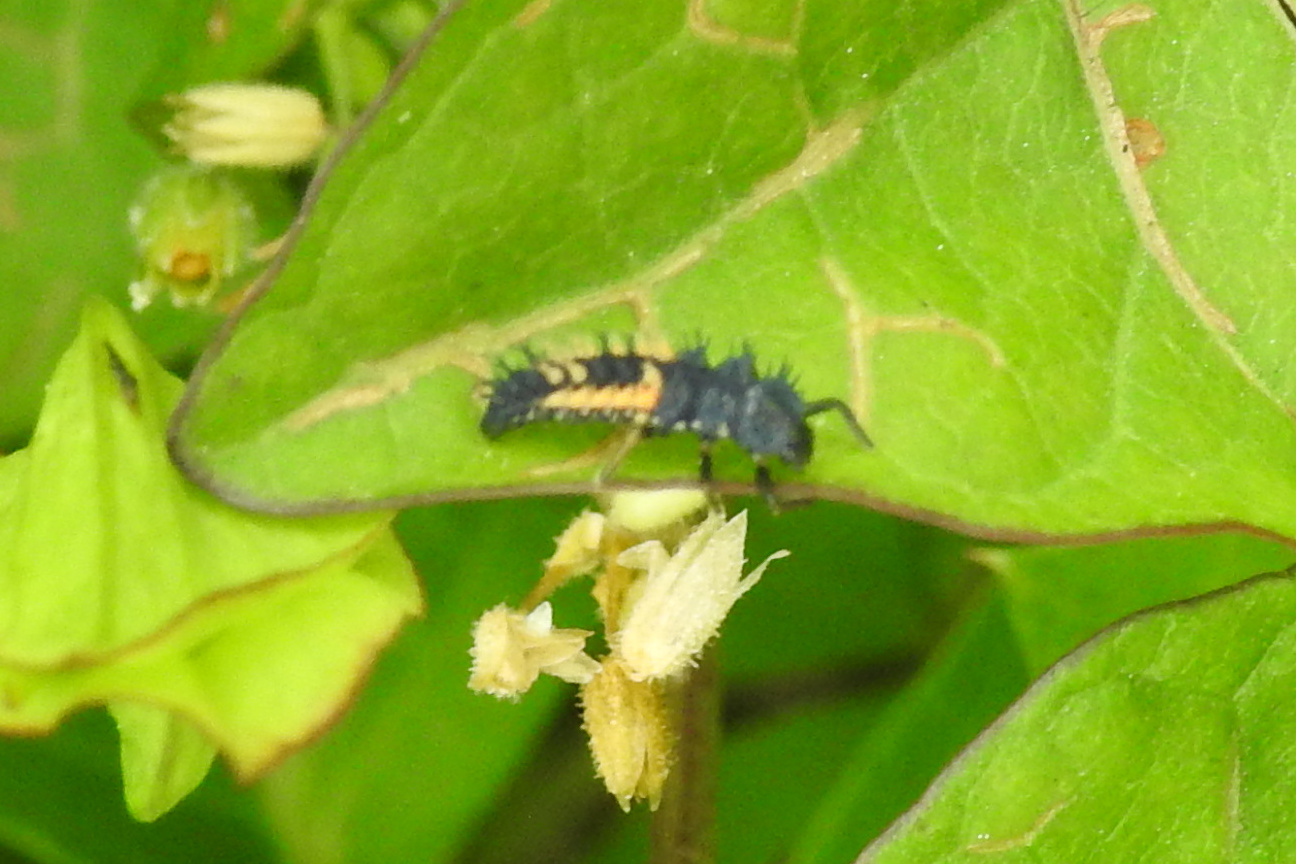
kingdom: Animalia
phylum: Arthropoda
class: Insecta
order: Coleoptera
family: Coccinellidae
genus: Harmonia
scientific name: Harmonia axyridis
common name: Harlequin ladybird
